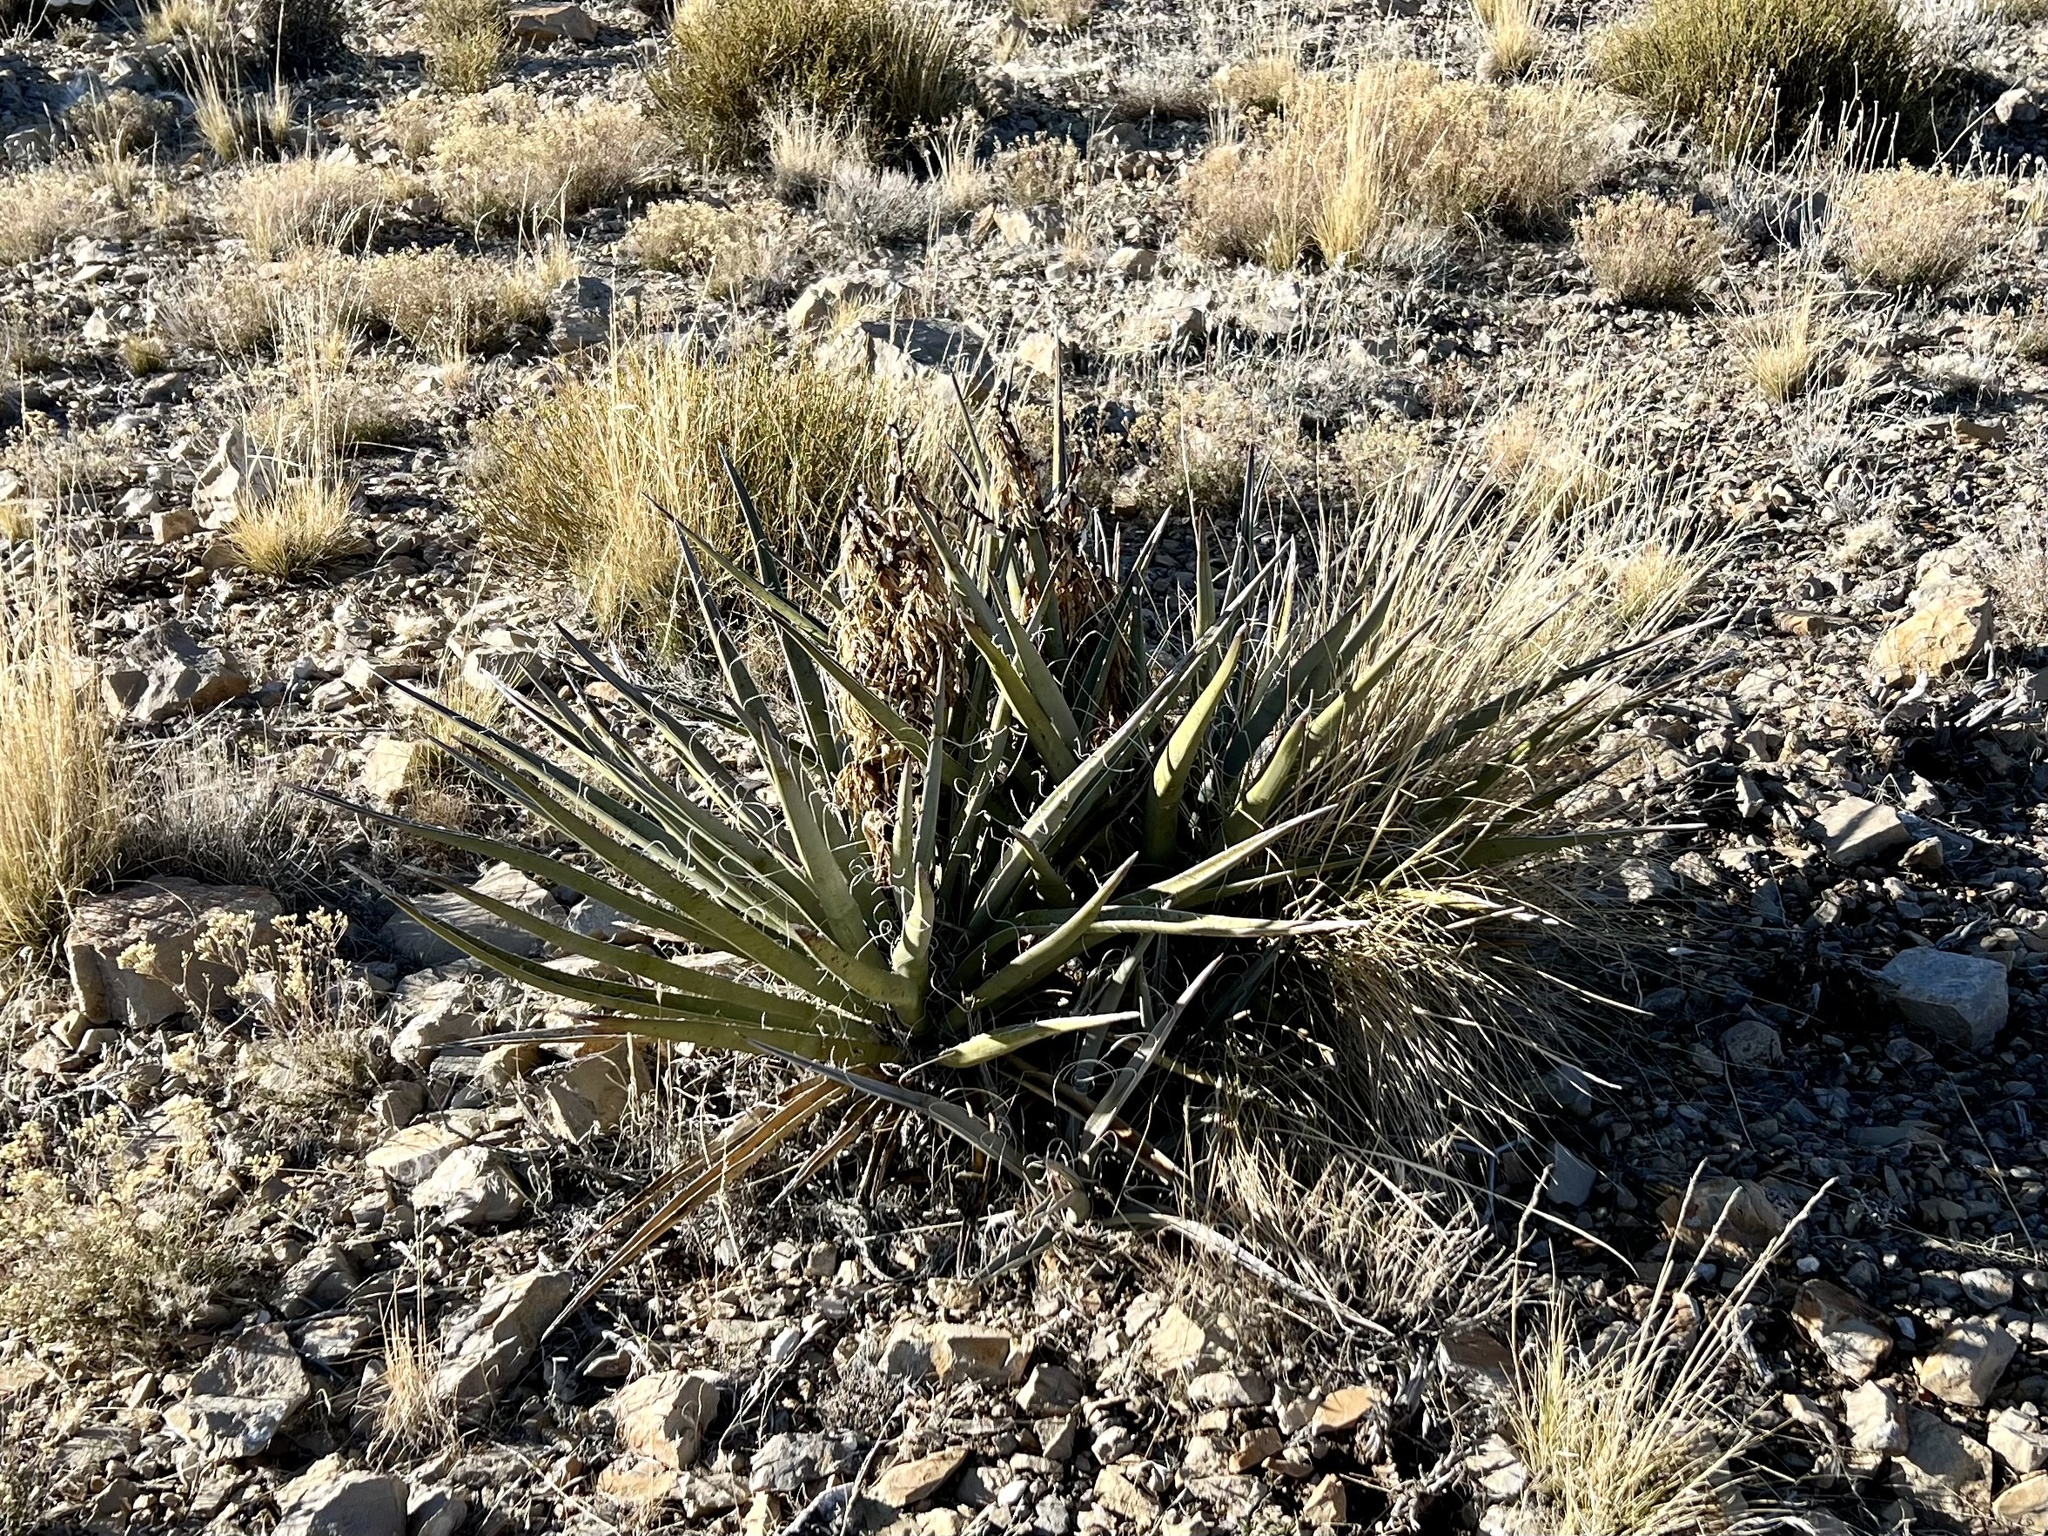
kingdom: Plantae
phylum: Tracheophyta
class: Liliopsida
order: Asparagales
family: Asparagaceae
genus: Yucca
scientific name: Yucca baccata
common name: Banana yucca
